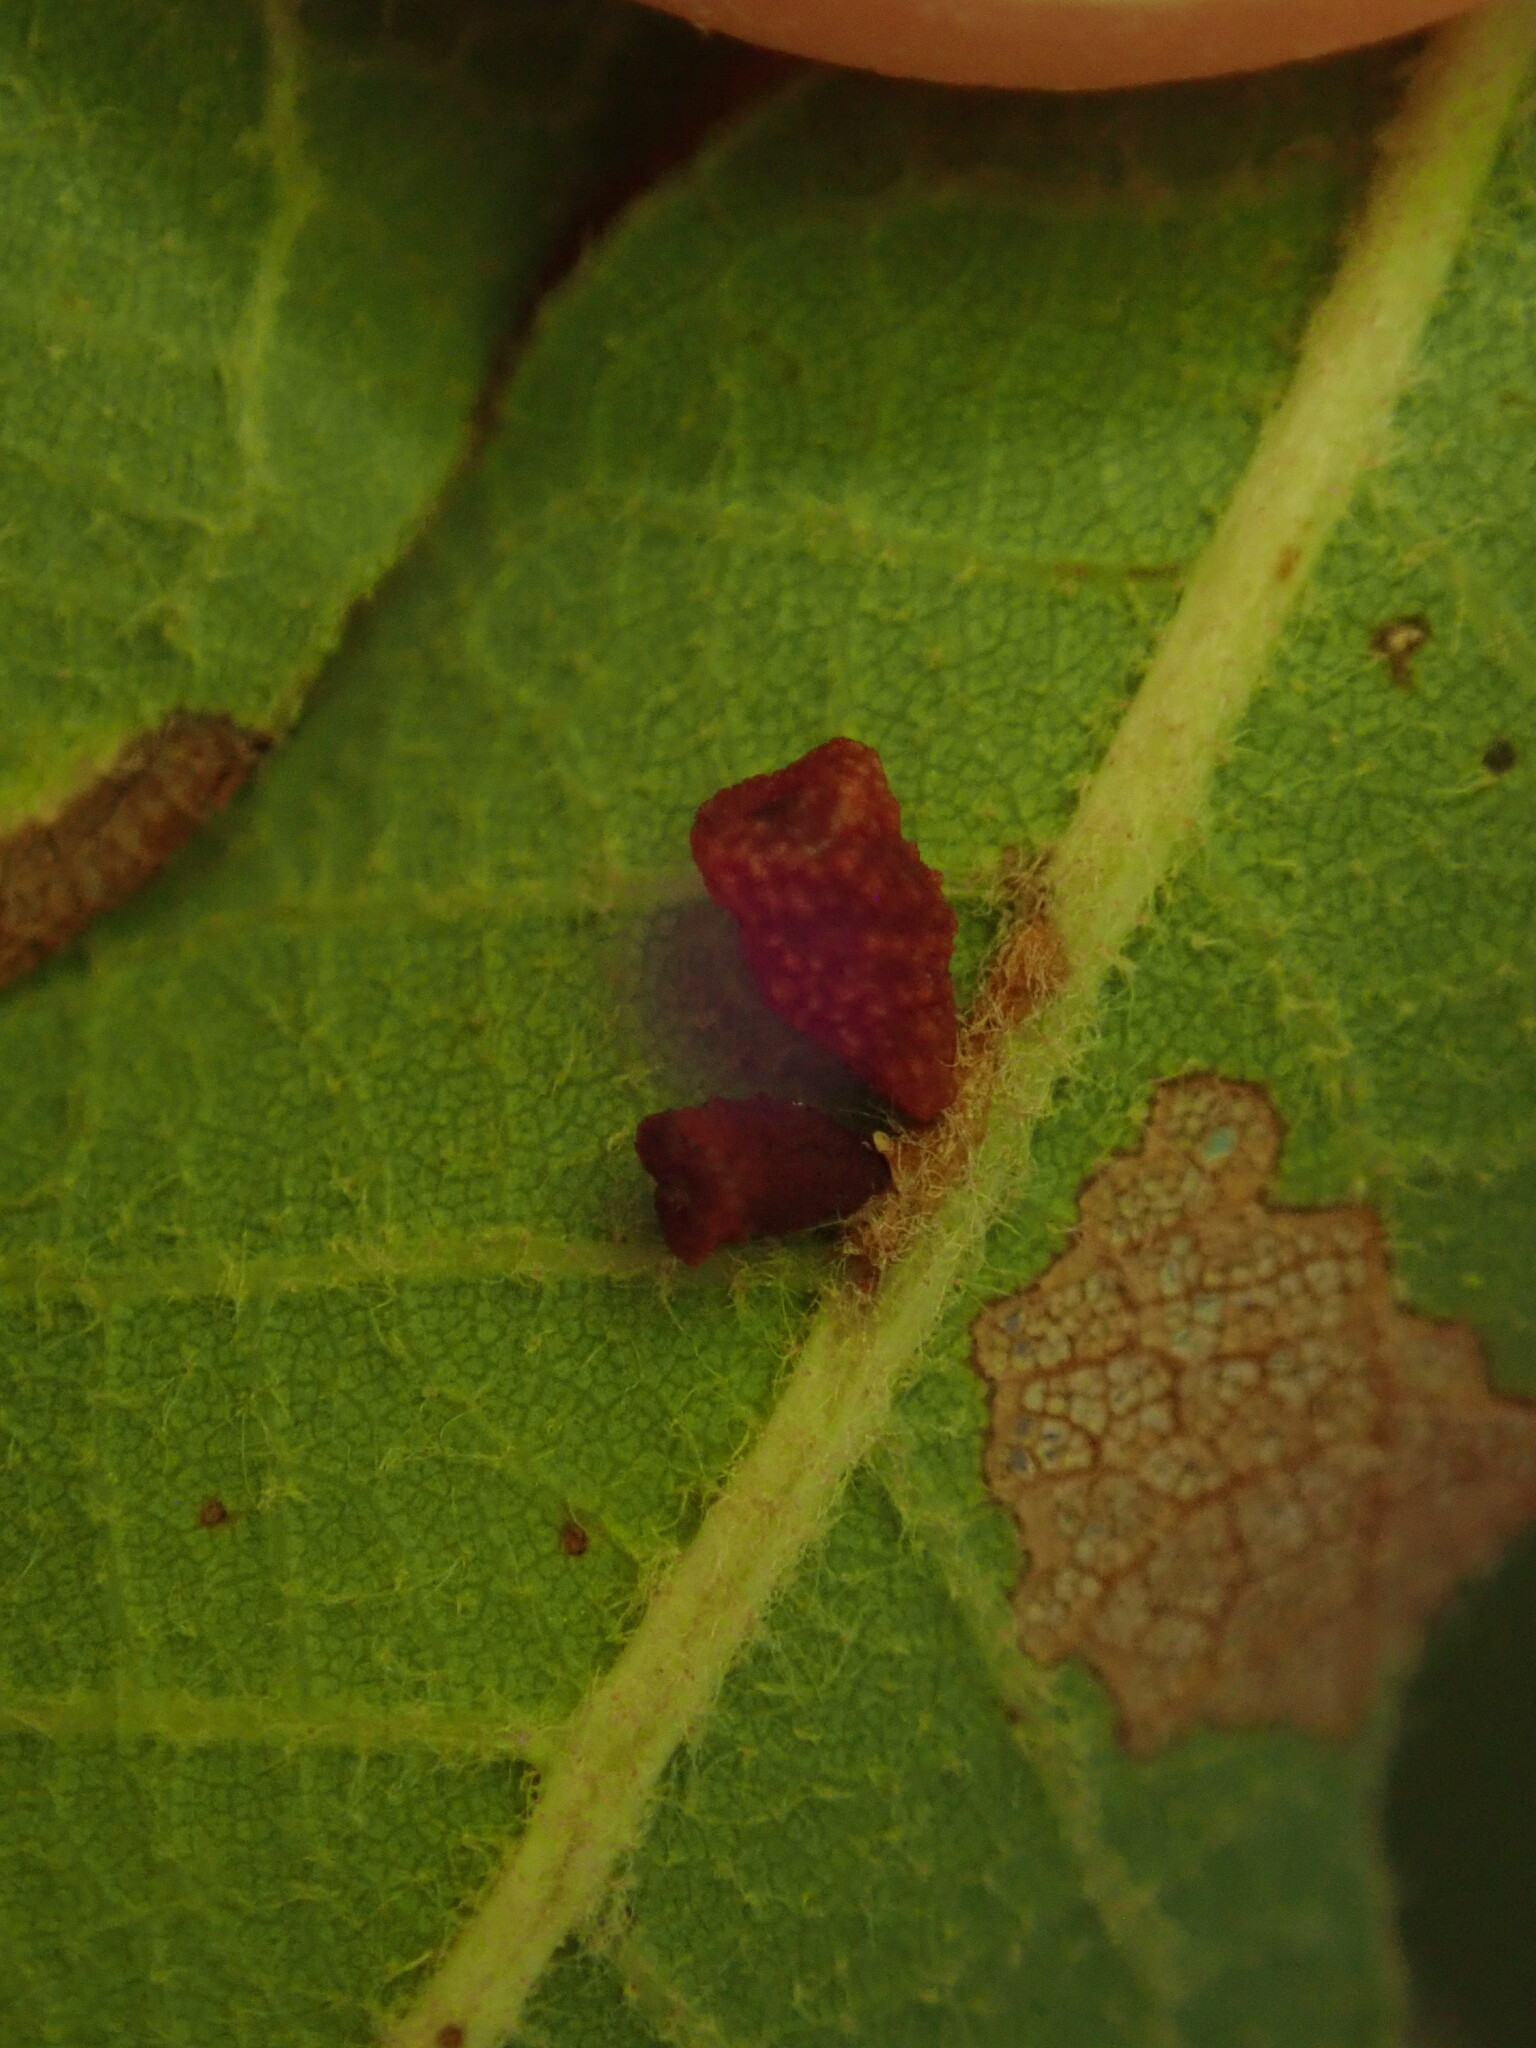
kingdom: Animalia
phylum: Arthropoda
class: Insecta
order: Hymenoptera
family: Cynipidae
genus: Callirhytis
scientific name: Callirhytis
